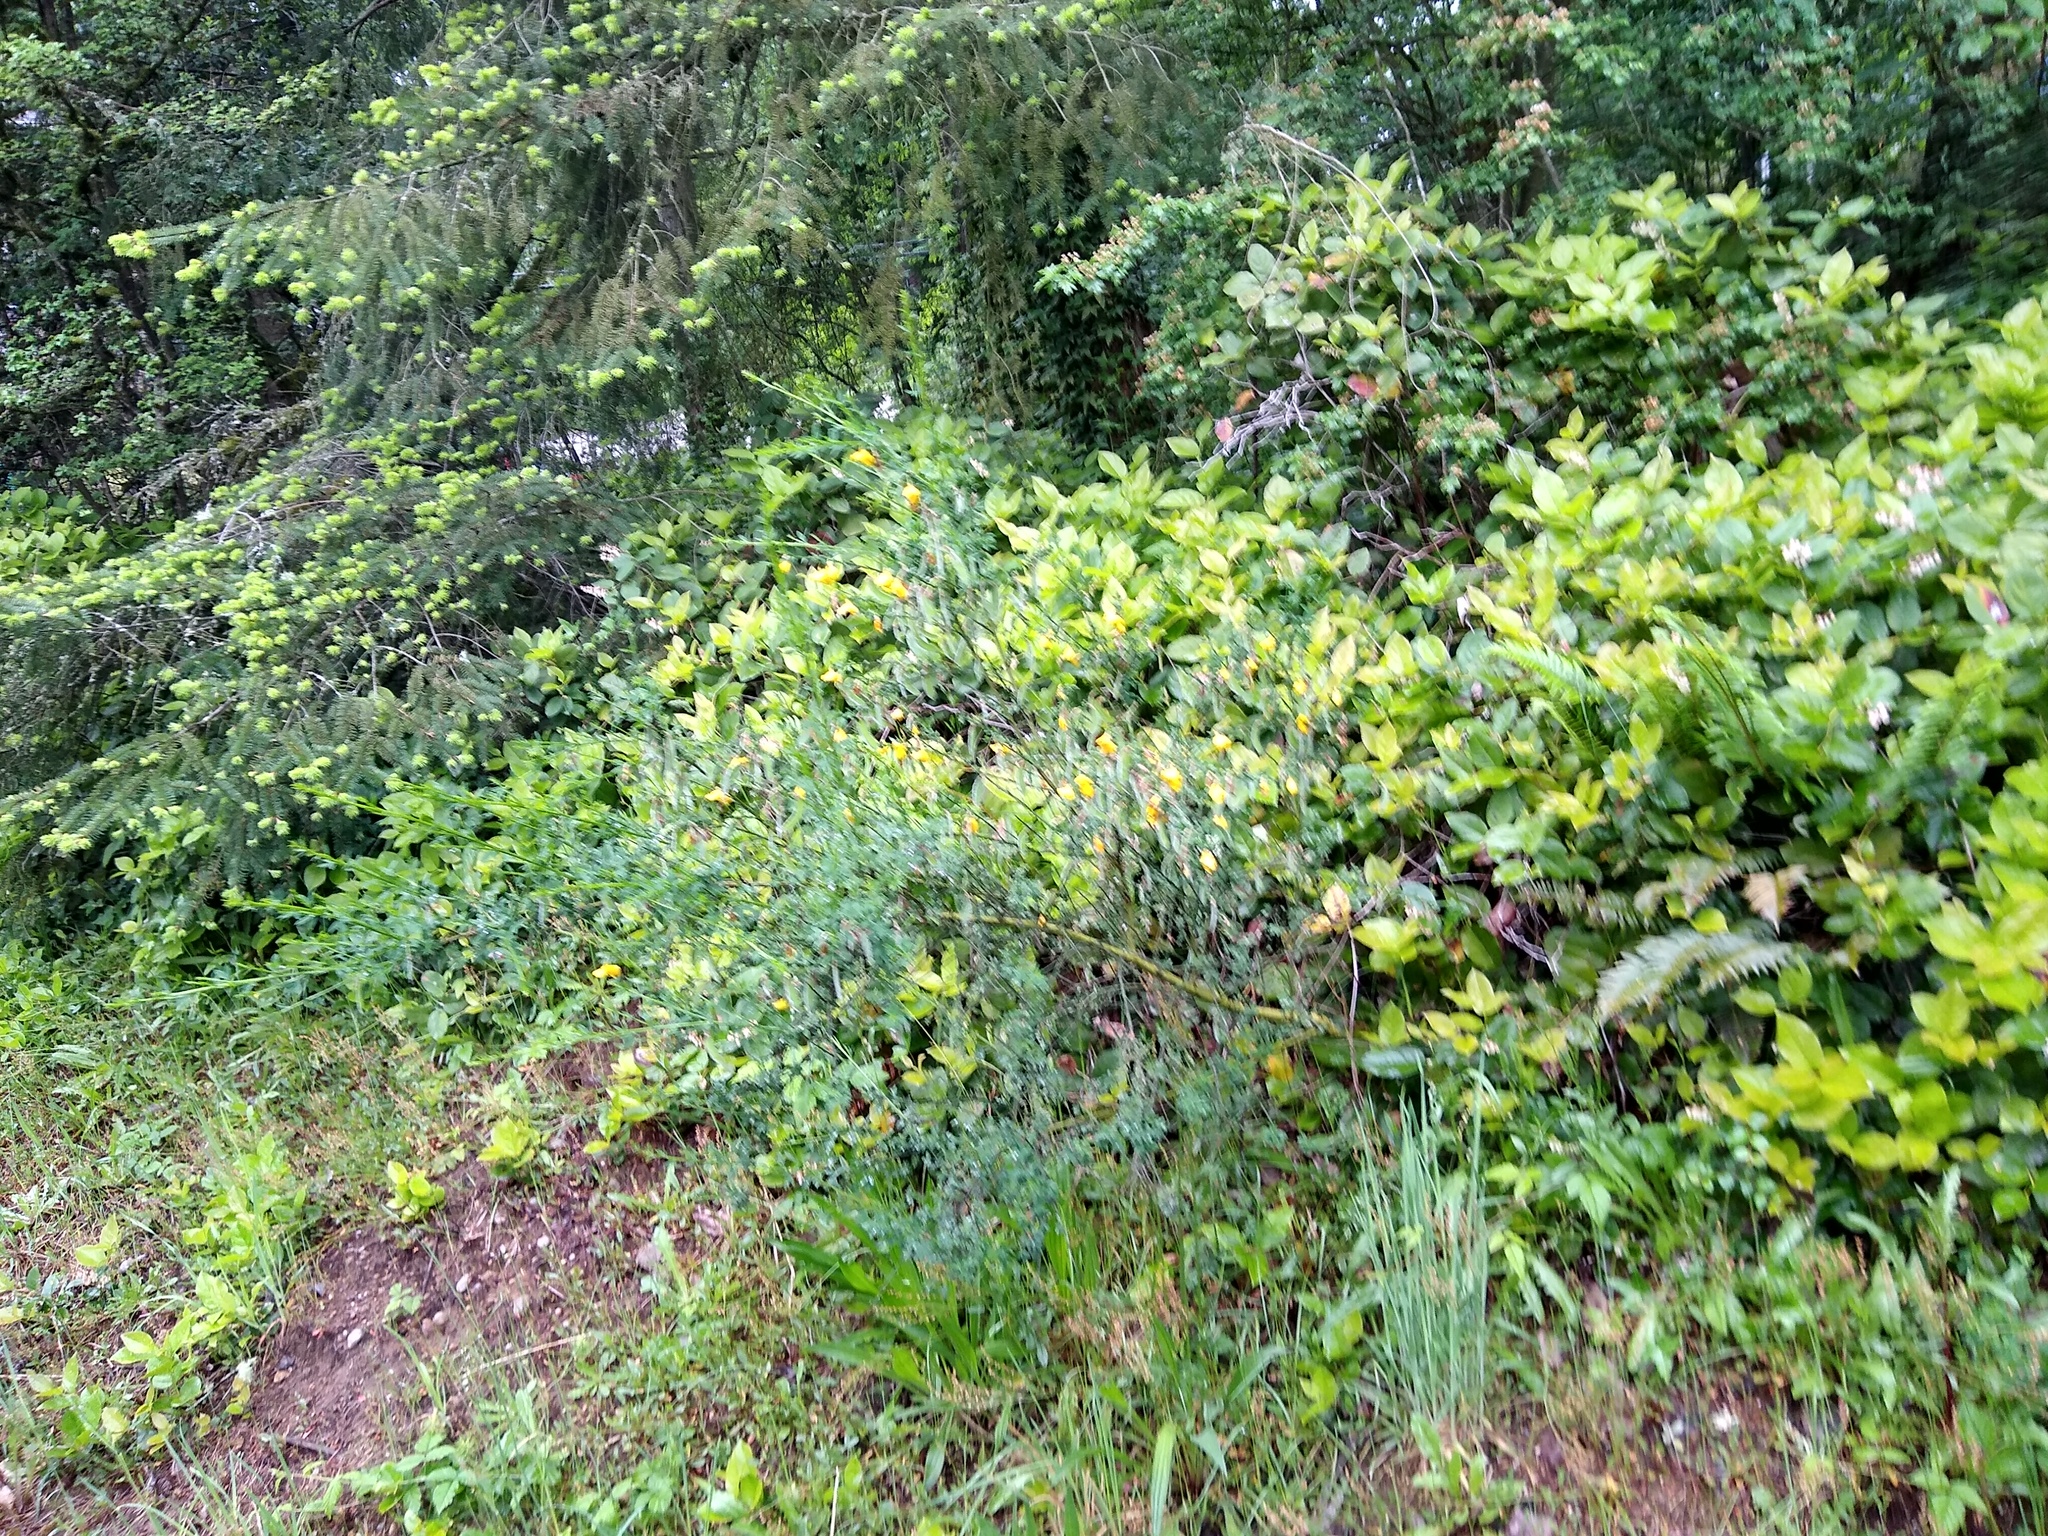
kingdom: Plantae
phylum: Tracheophyta
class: Magnoliopsida
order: Fabales
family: Fabaceae
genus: Cytisus
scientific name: Cytisus scoparius
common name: Scotch broom
